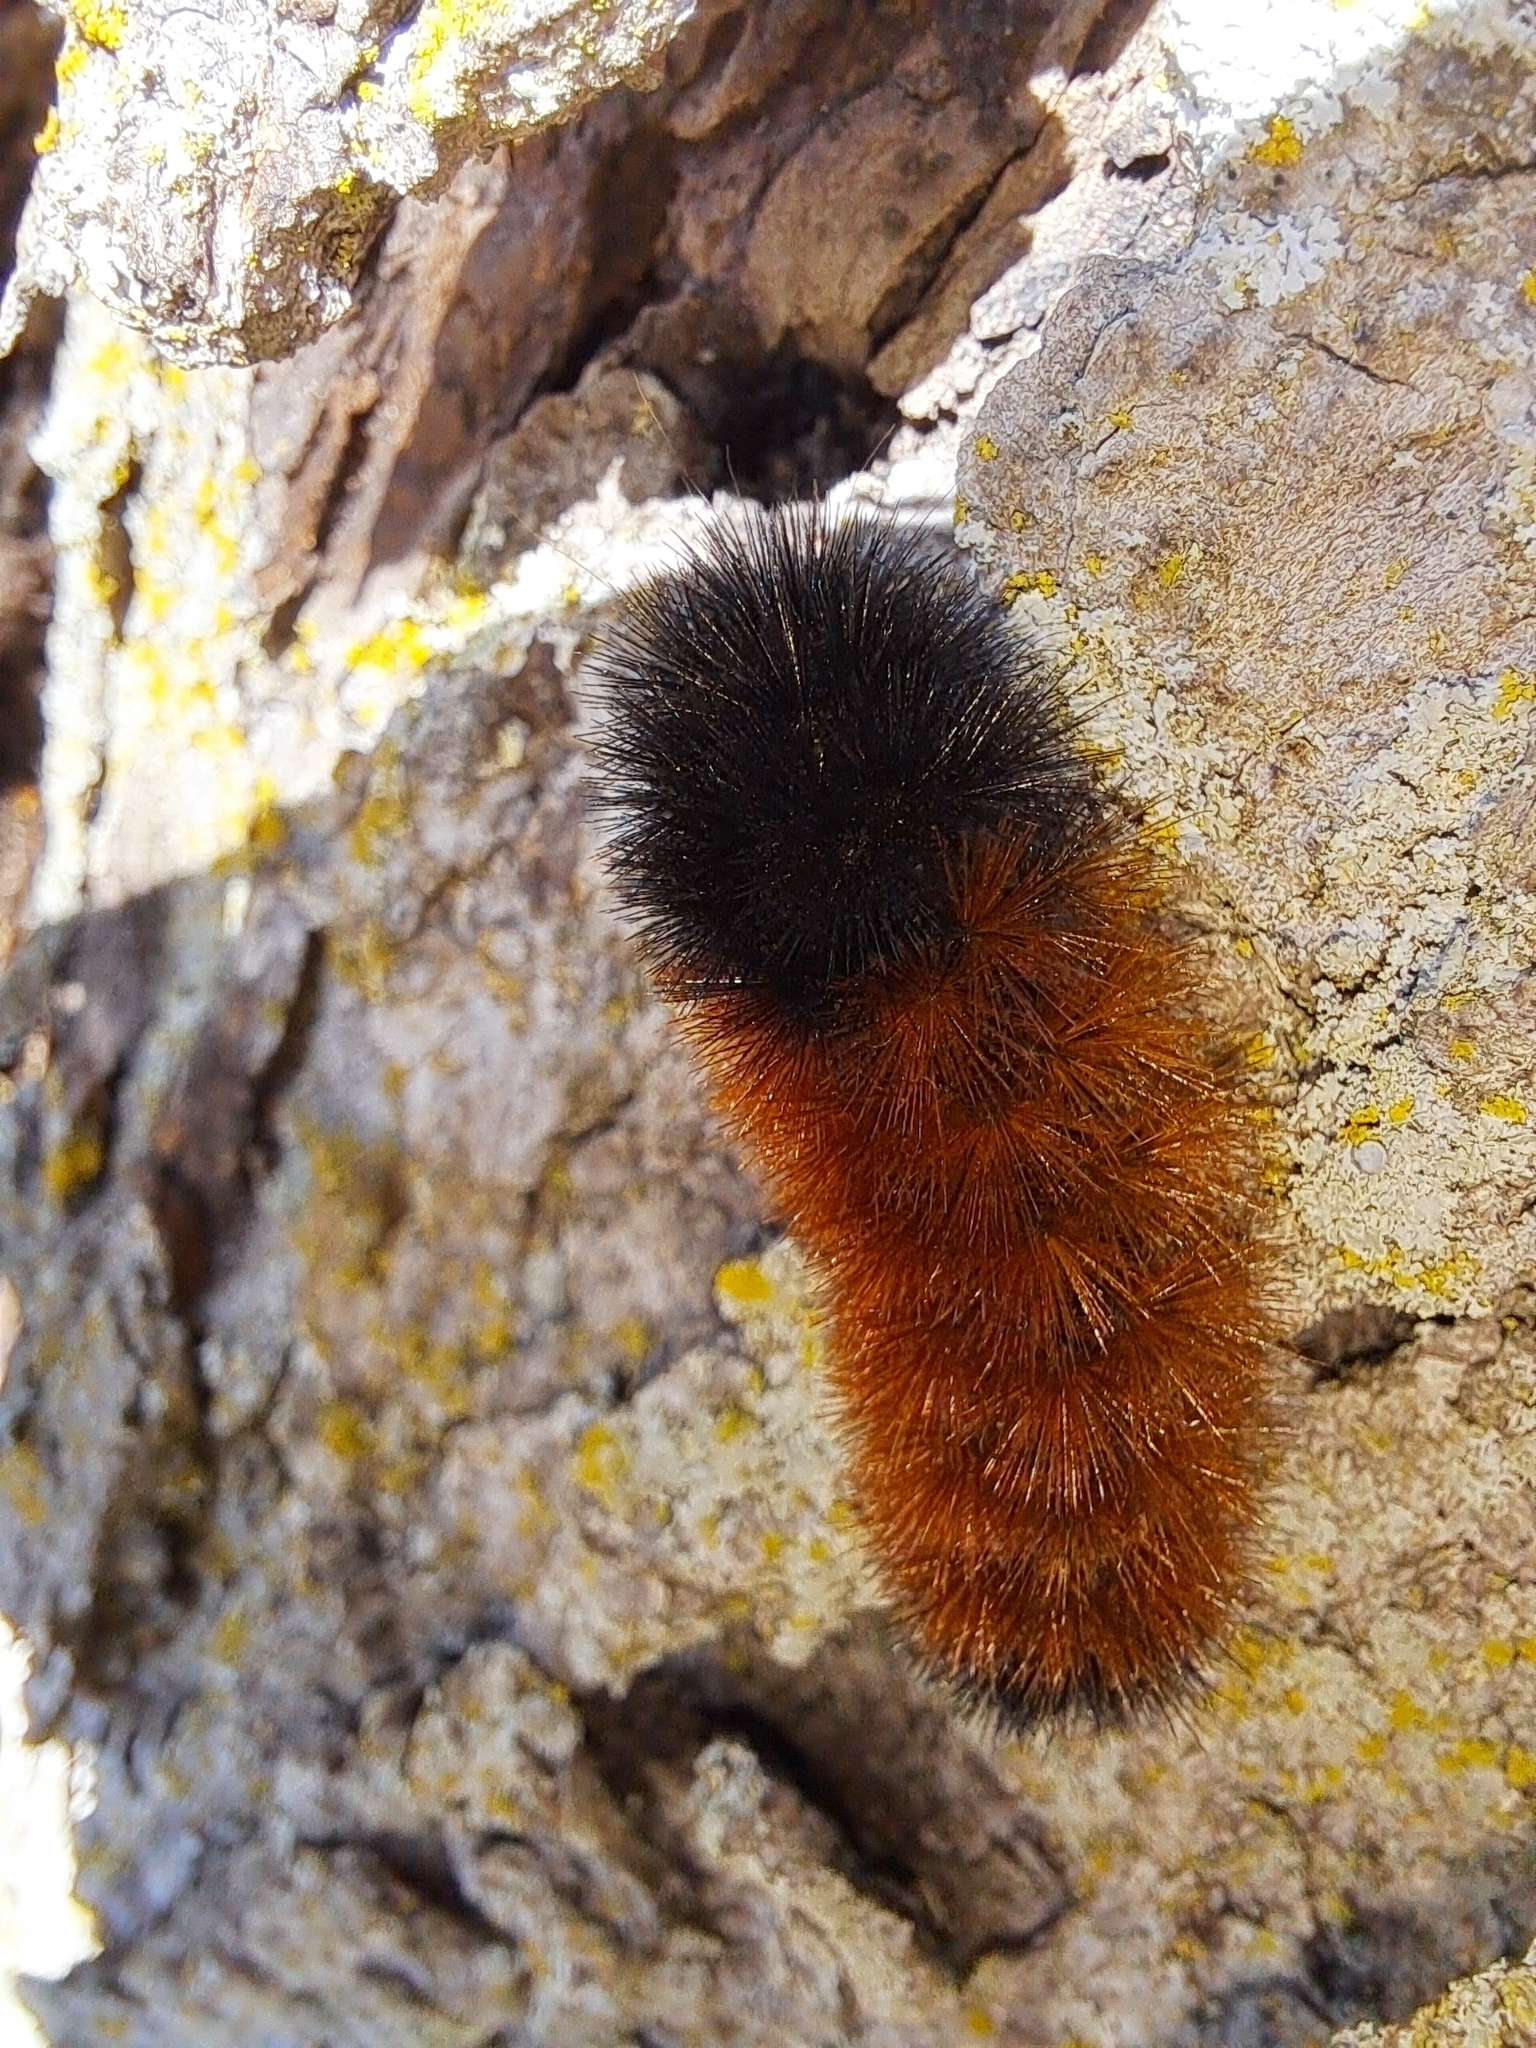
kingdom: Animalia
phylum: Arthropoda
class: Insecta
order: Lepidoptera
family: Erebidae
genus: Pyrrharctia
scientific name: Pyrrharctia isabella
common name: Isabella tiger moth
